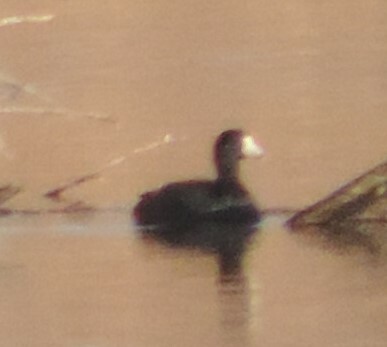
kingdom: Animalia
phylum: Chordata
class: Aves
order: Gruiformes
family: Rallidae
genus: Fulica
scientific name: Fulica americana
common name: American coot
